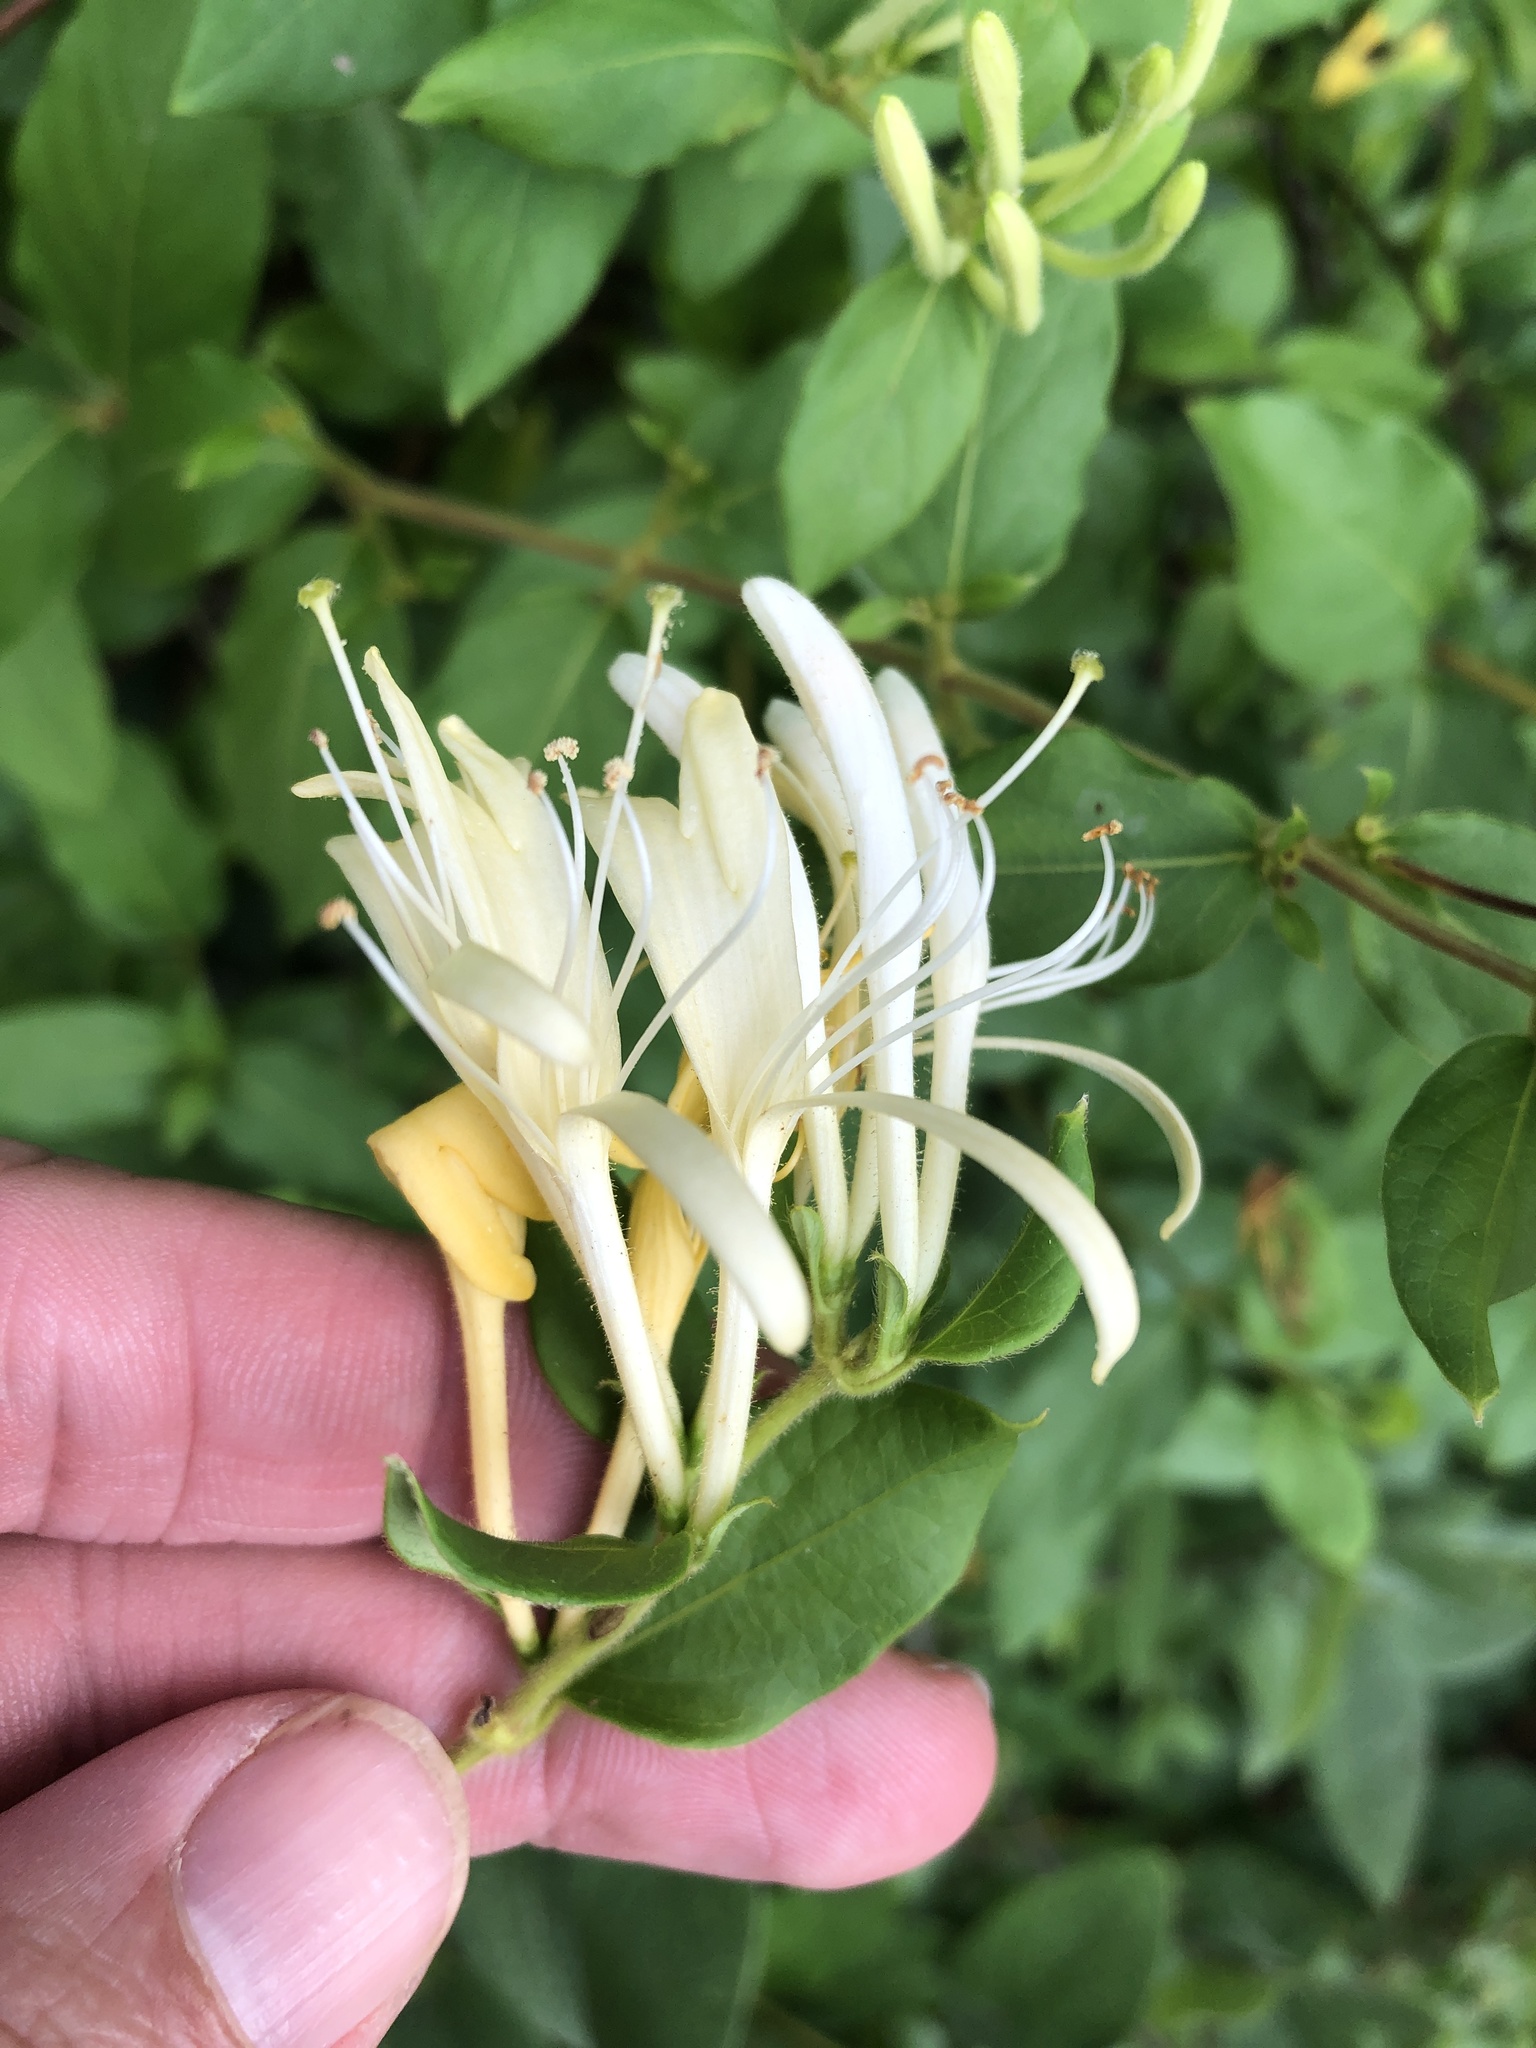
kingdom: Plantae
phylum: Tracheophyta
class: Magnoliopsida
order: Dipsacales
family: Caprifoliaceae
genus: Lonicera
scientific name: Lonicera japonica
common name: Japanese honeysuckle
